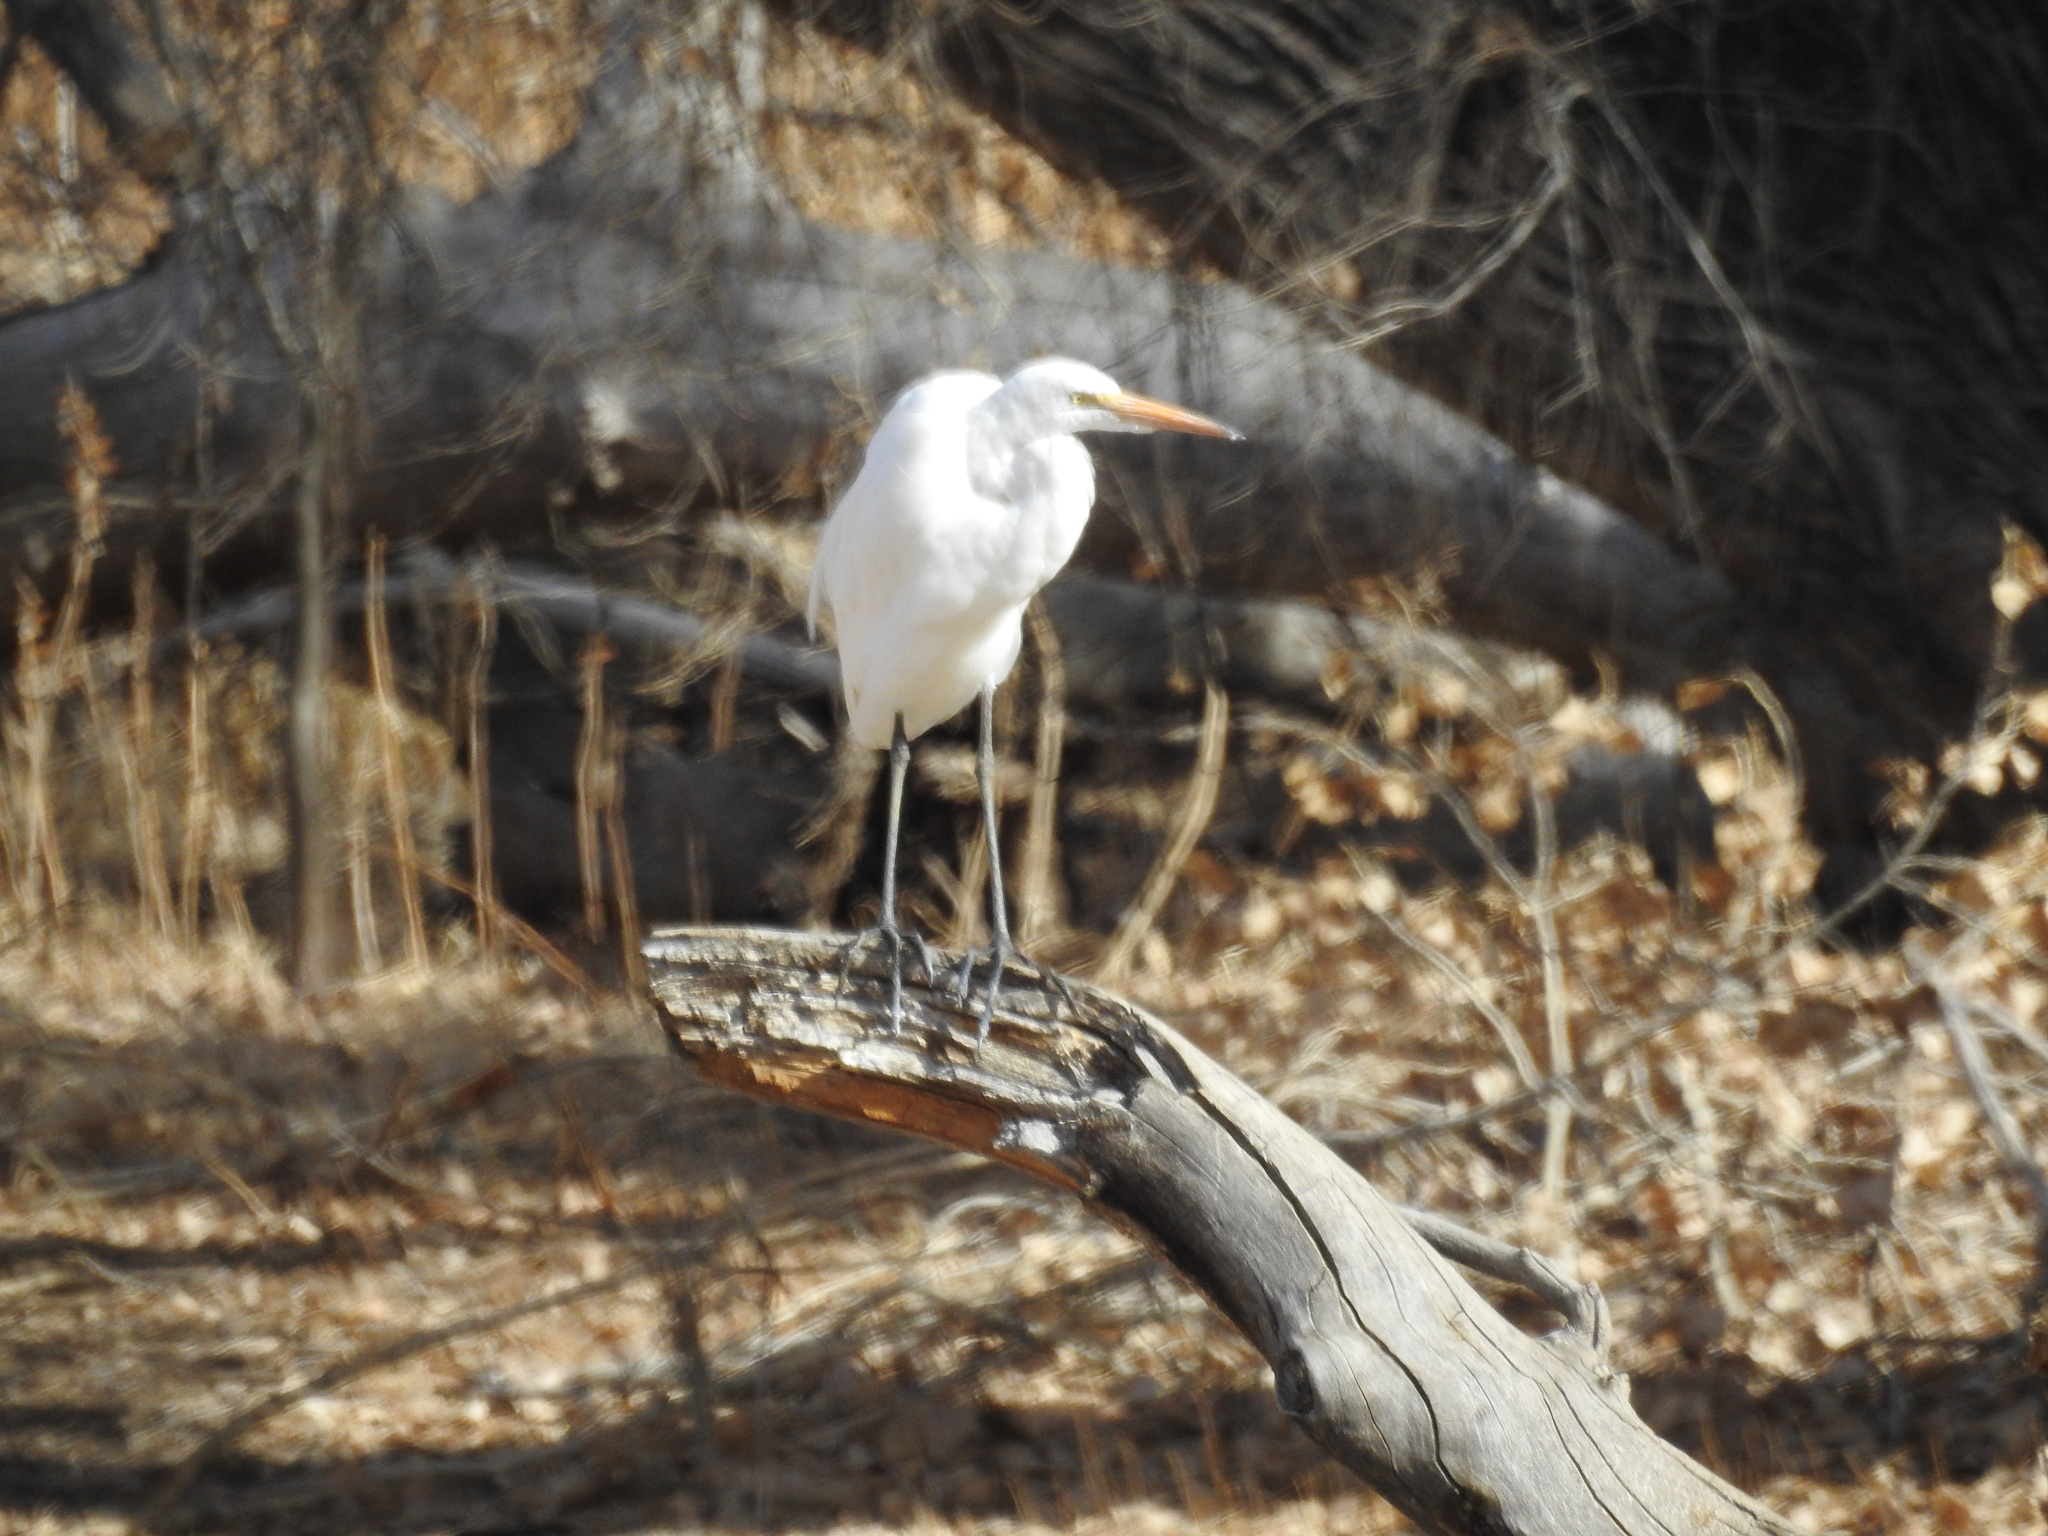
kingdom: Animalia
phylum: Chordata
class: Aves
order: Pelecaniformes
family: Ardeidae
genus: Ardea
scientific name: Ardea alba
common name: Great egret
